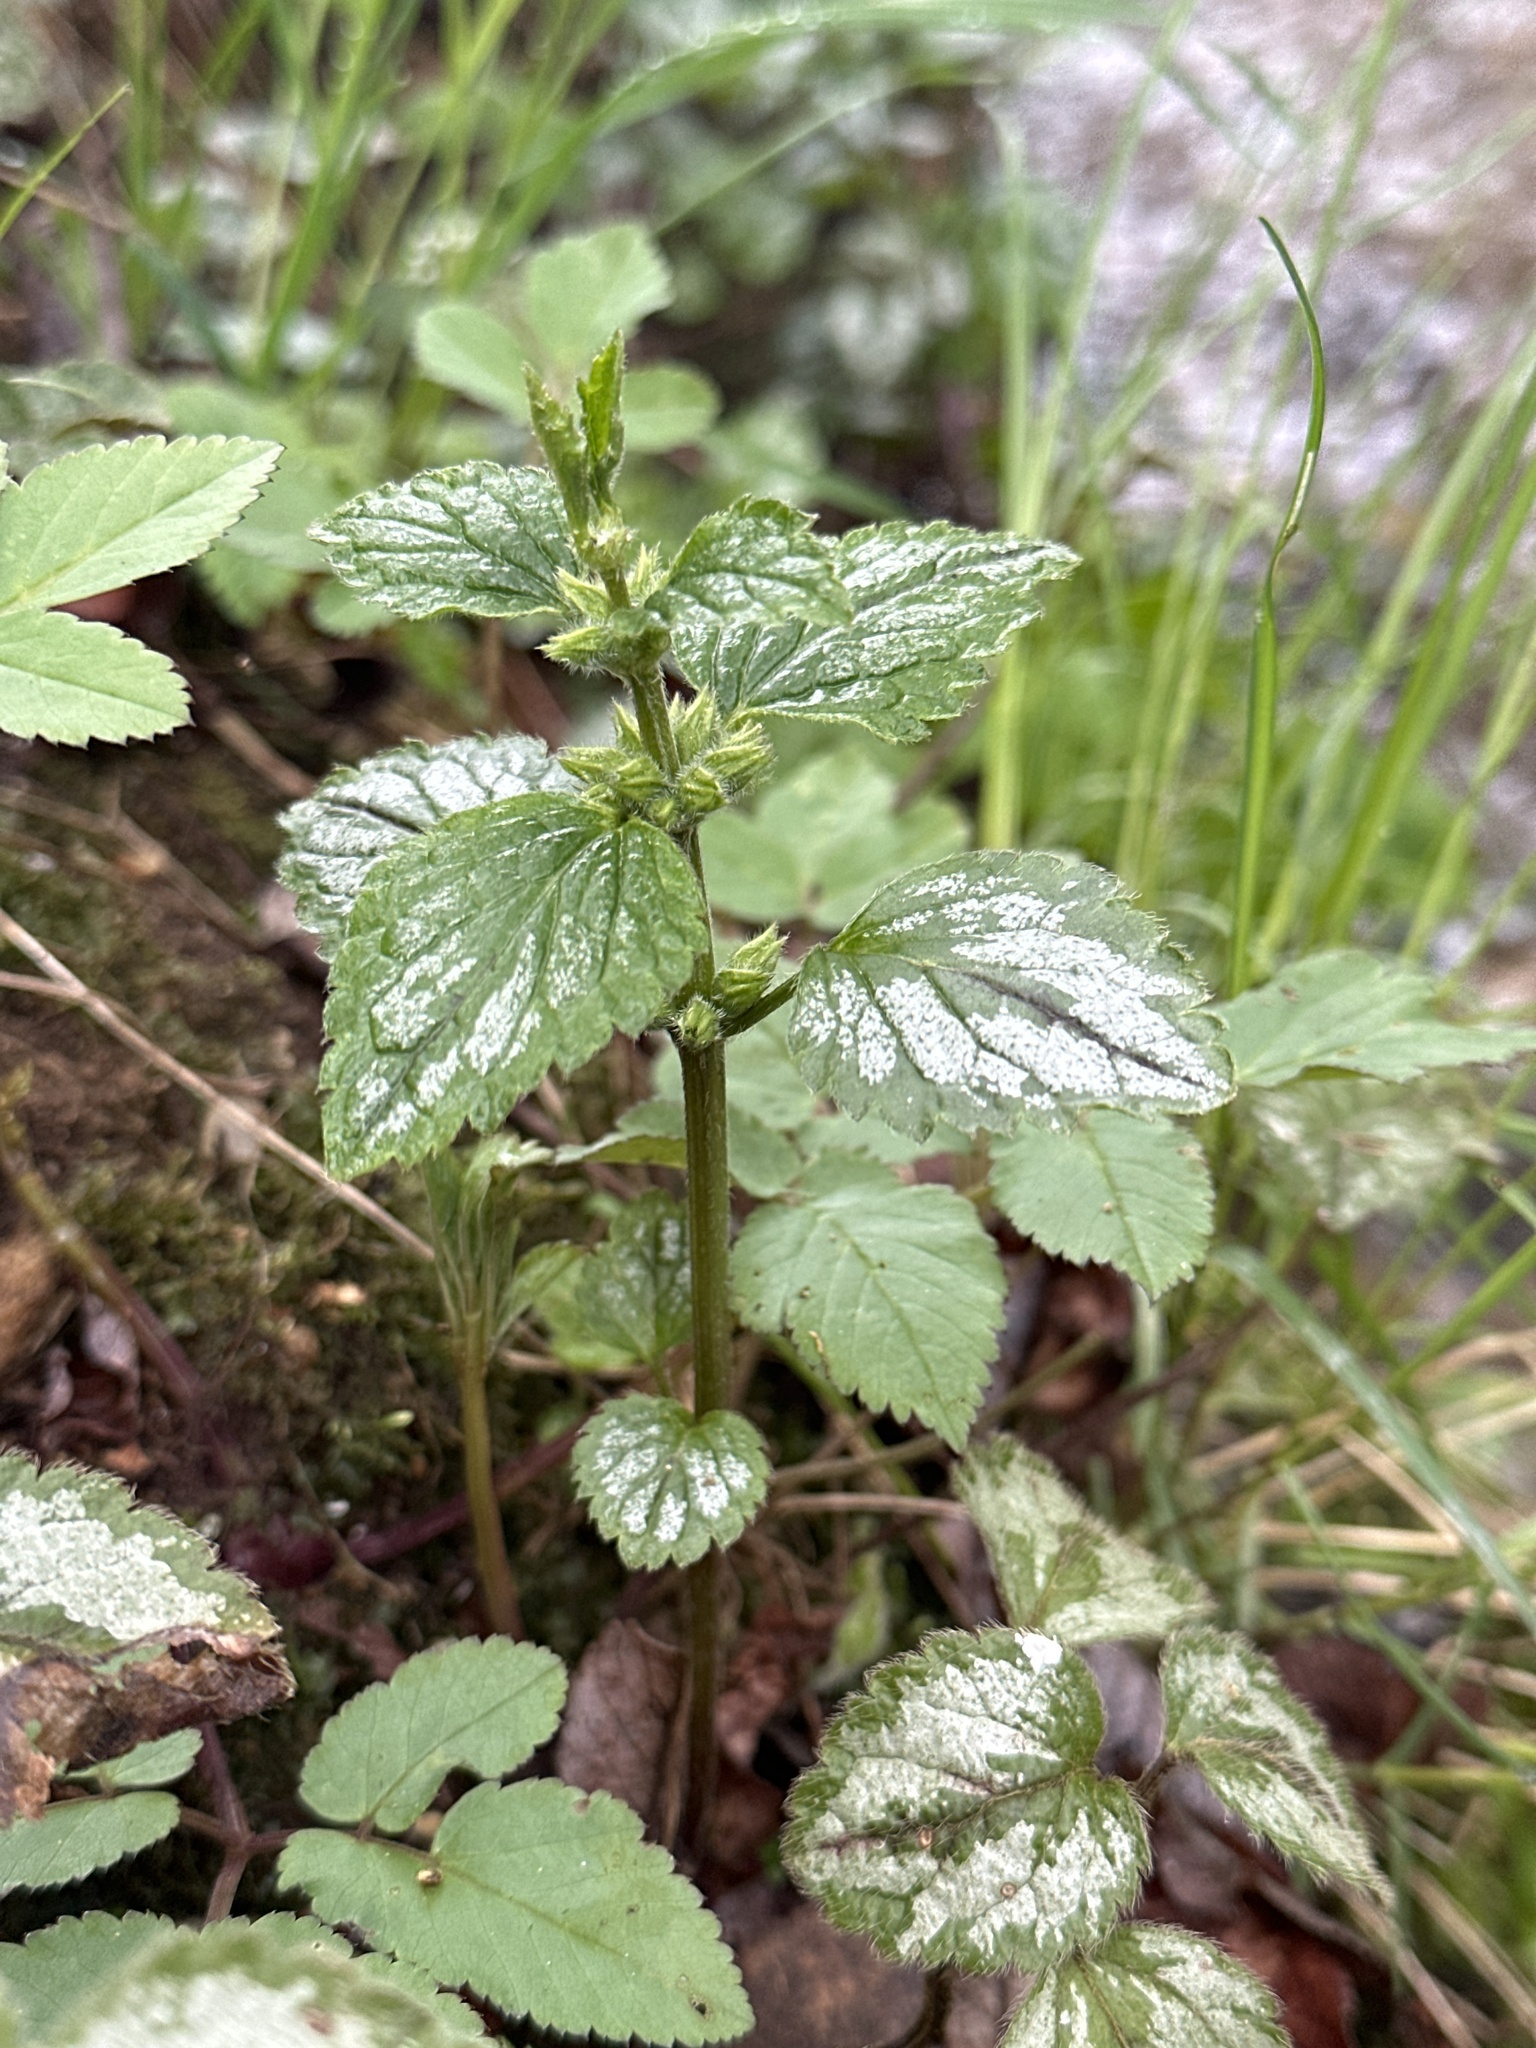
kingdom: Plantae
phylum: Tracheophyta
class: Magnoliopsida
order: Lamiales
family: Lamiaceae
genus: Lamium
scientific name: Lamium galeobdolon
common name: Yellow archangel
